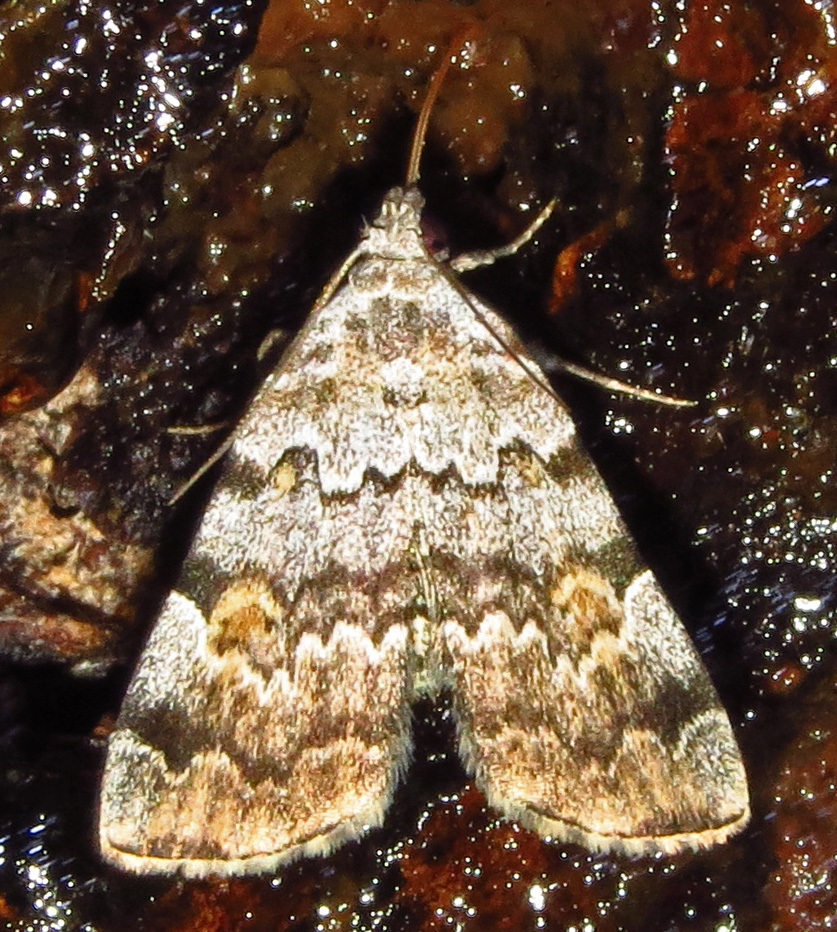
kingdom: Animalia
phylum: Arthropoda
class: Insecta
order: Lepidoptera
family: Erebidae
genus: Idia
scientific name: Idia americalis
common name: American idia moth
